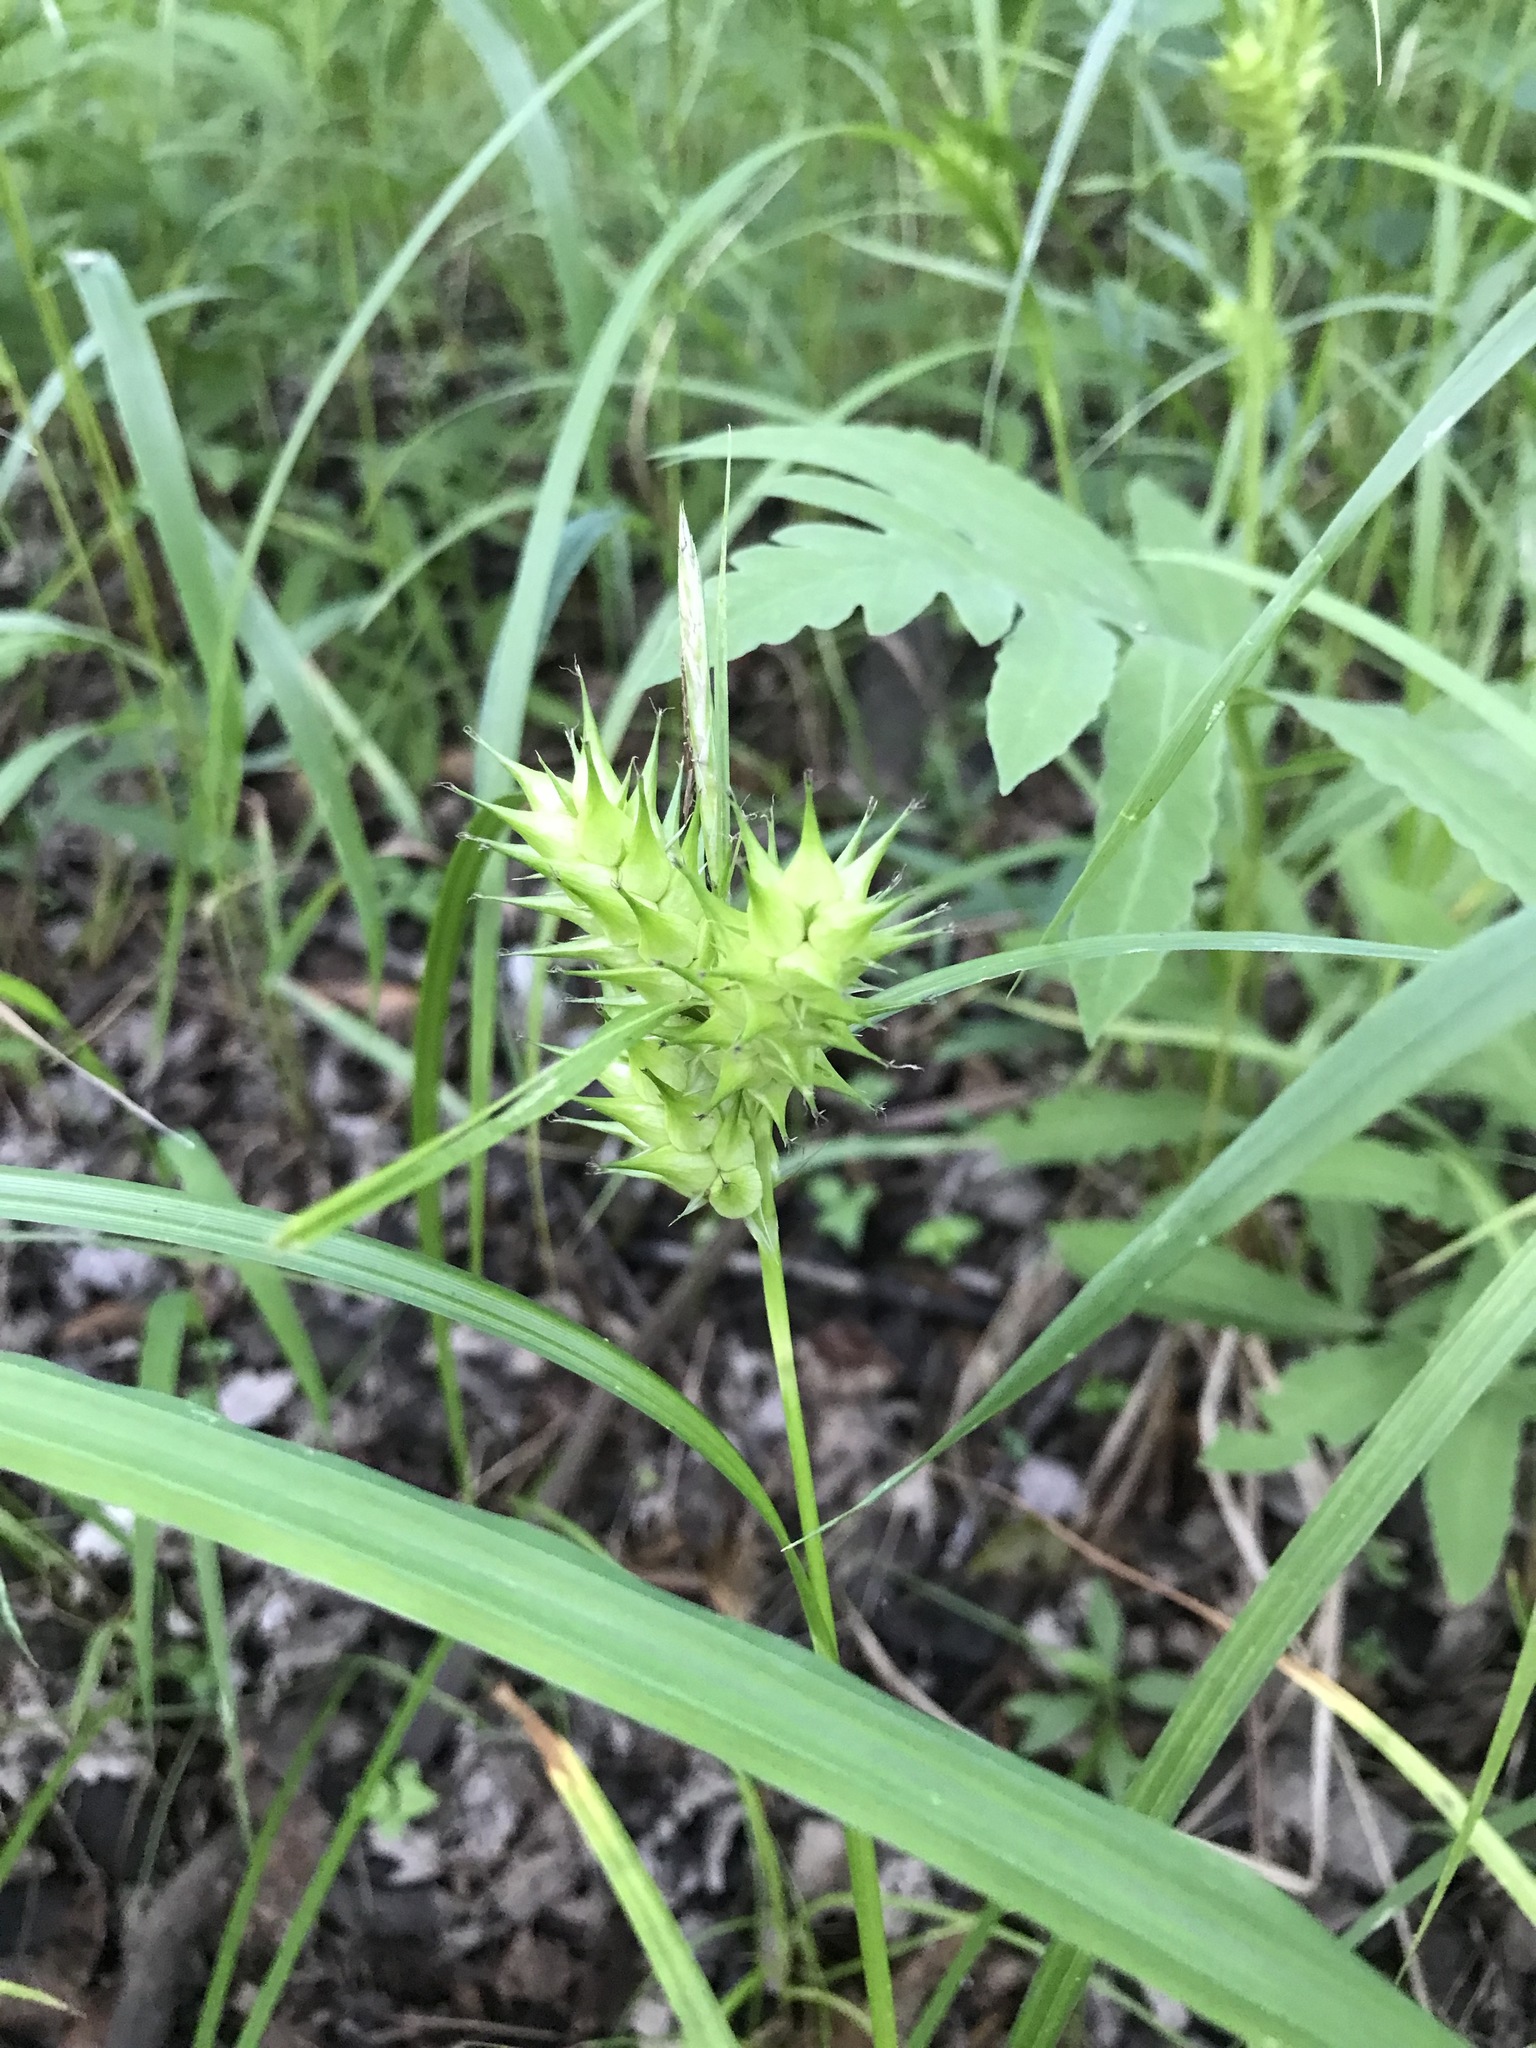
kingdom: Plantae
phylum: Tracheophyta
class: Liliopsida
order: Poales
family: Cyperaceae
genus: Carex
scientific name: Carex lupulina
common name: Hop sedge
